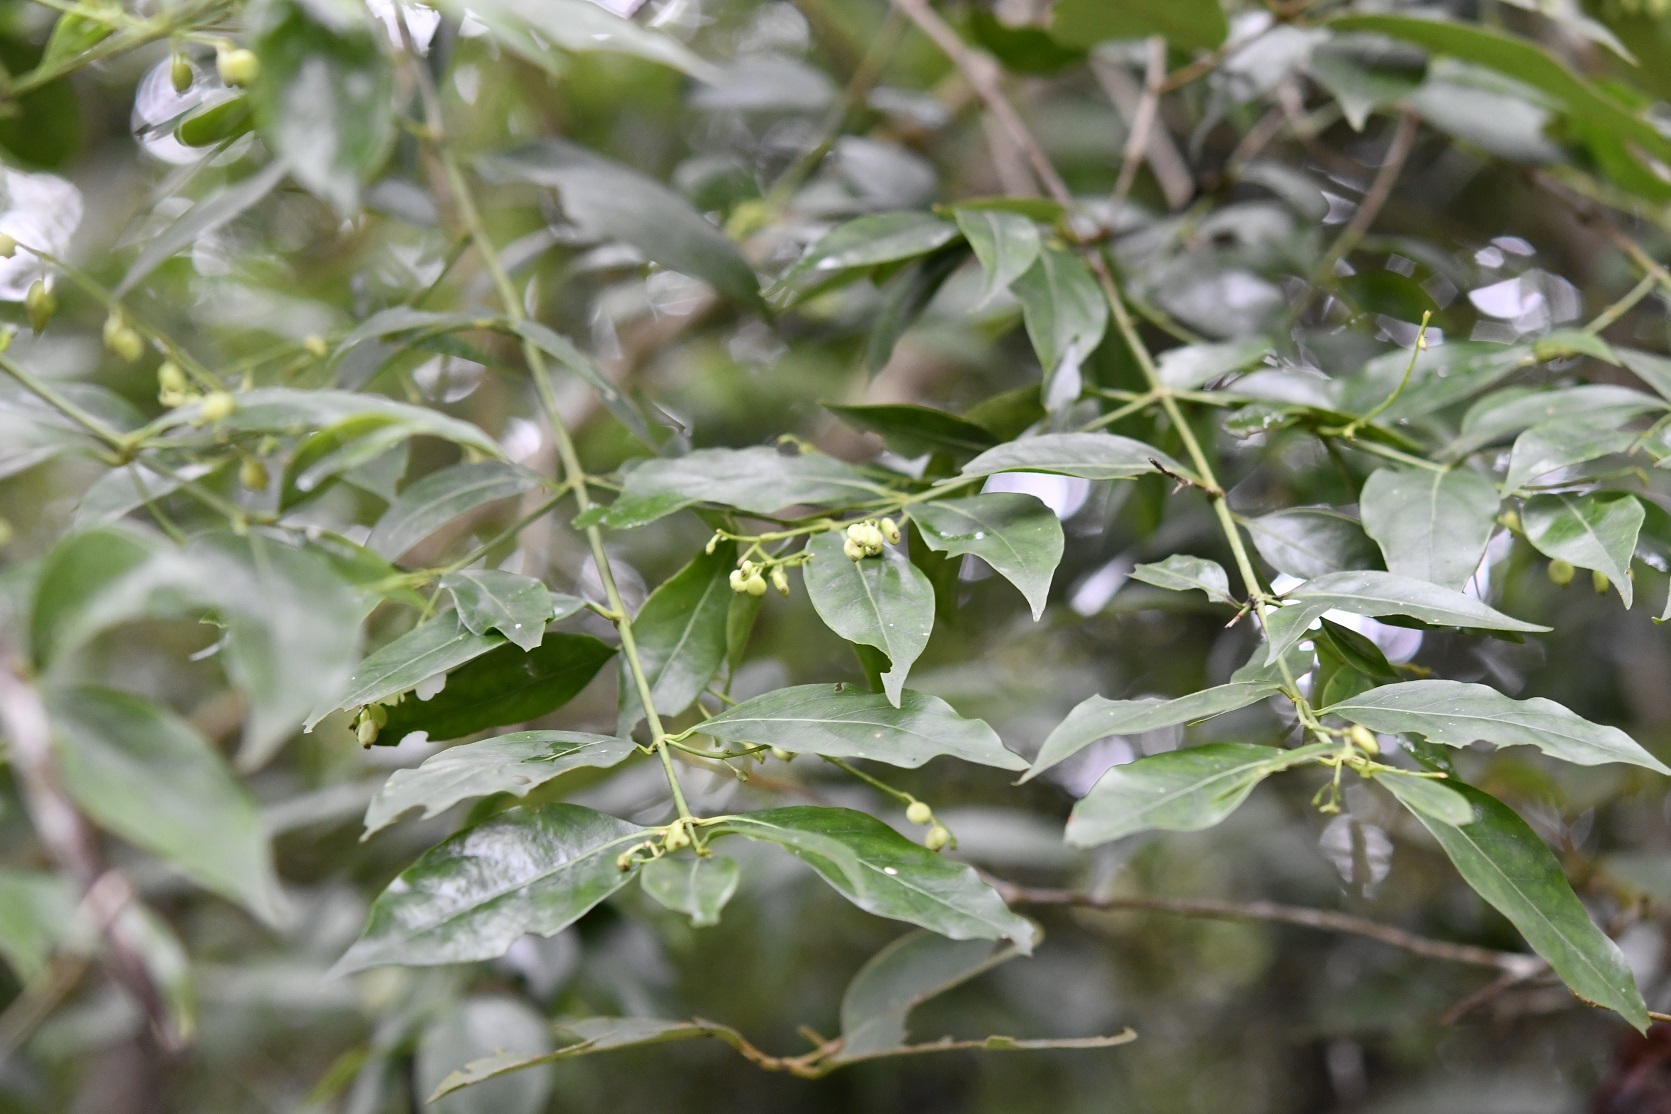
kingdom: Plantae
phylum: Tracheophyta
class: Magnoliopsida
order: Gentianales
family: Rubiaceae
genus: Chiococca
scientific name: Chiococca alba
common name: Snowberry
